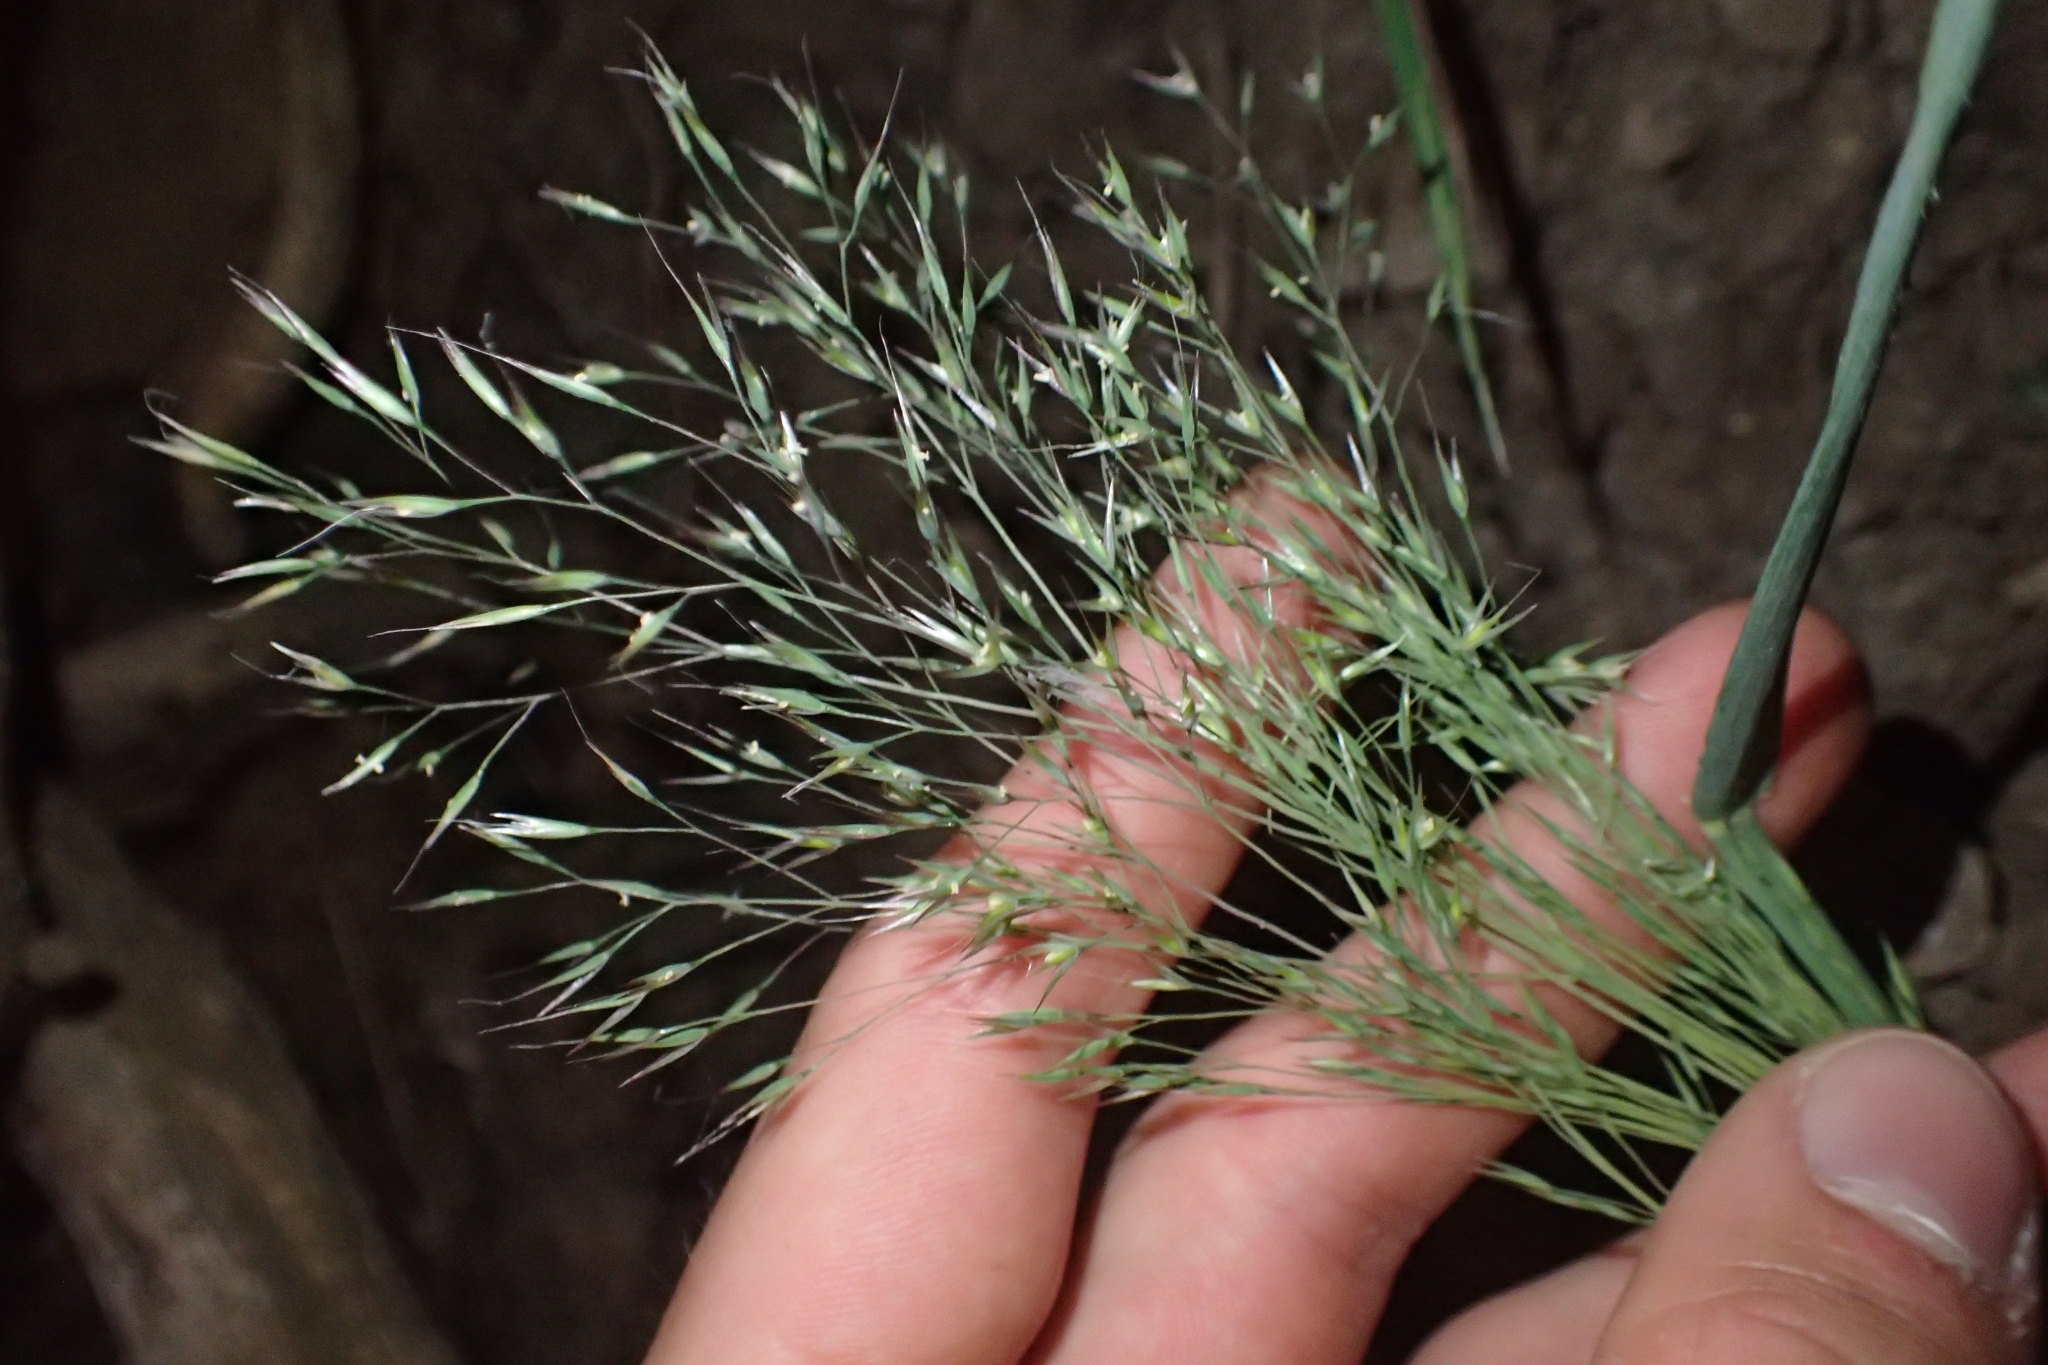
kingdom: Plantae
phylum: Tracheophyta
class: Liliopsida
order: Poales
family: Poaceae
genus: Lachnagrostis
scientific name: Lachnagrostis billardierei
